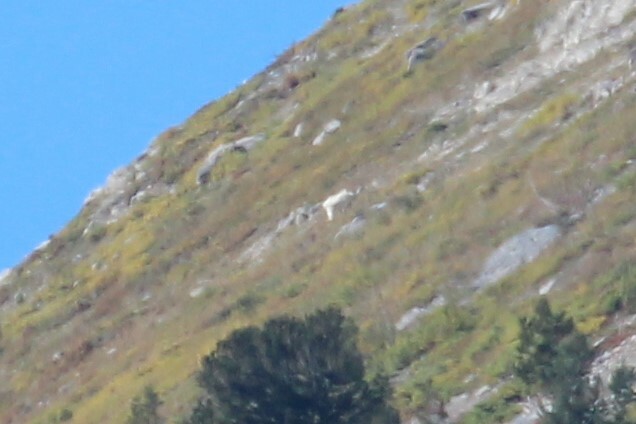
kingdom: Animalia
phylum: Chordata
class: Mammalia
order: Artiodactyla
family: Bovidae
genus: Oreamnos
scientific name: Oreamnos americanus
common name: Mountain goat
